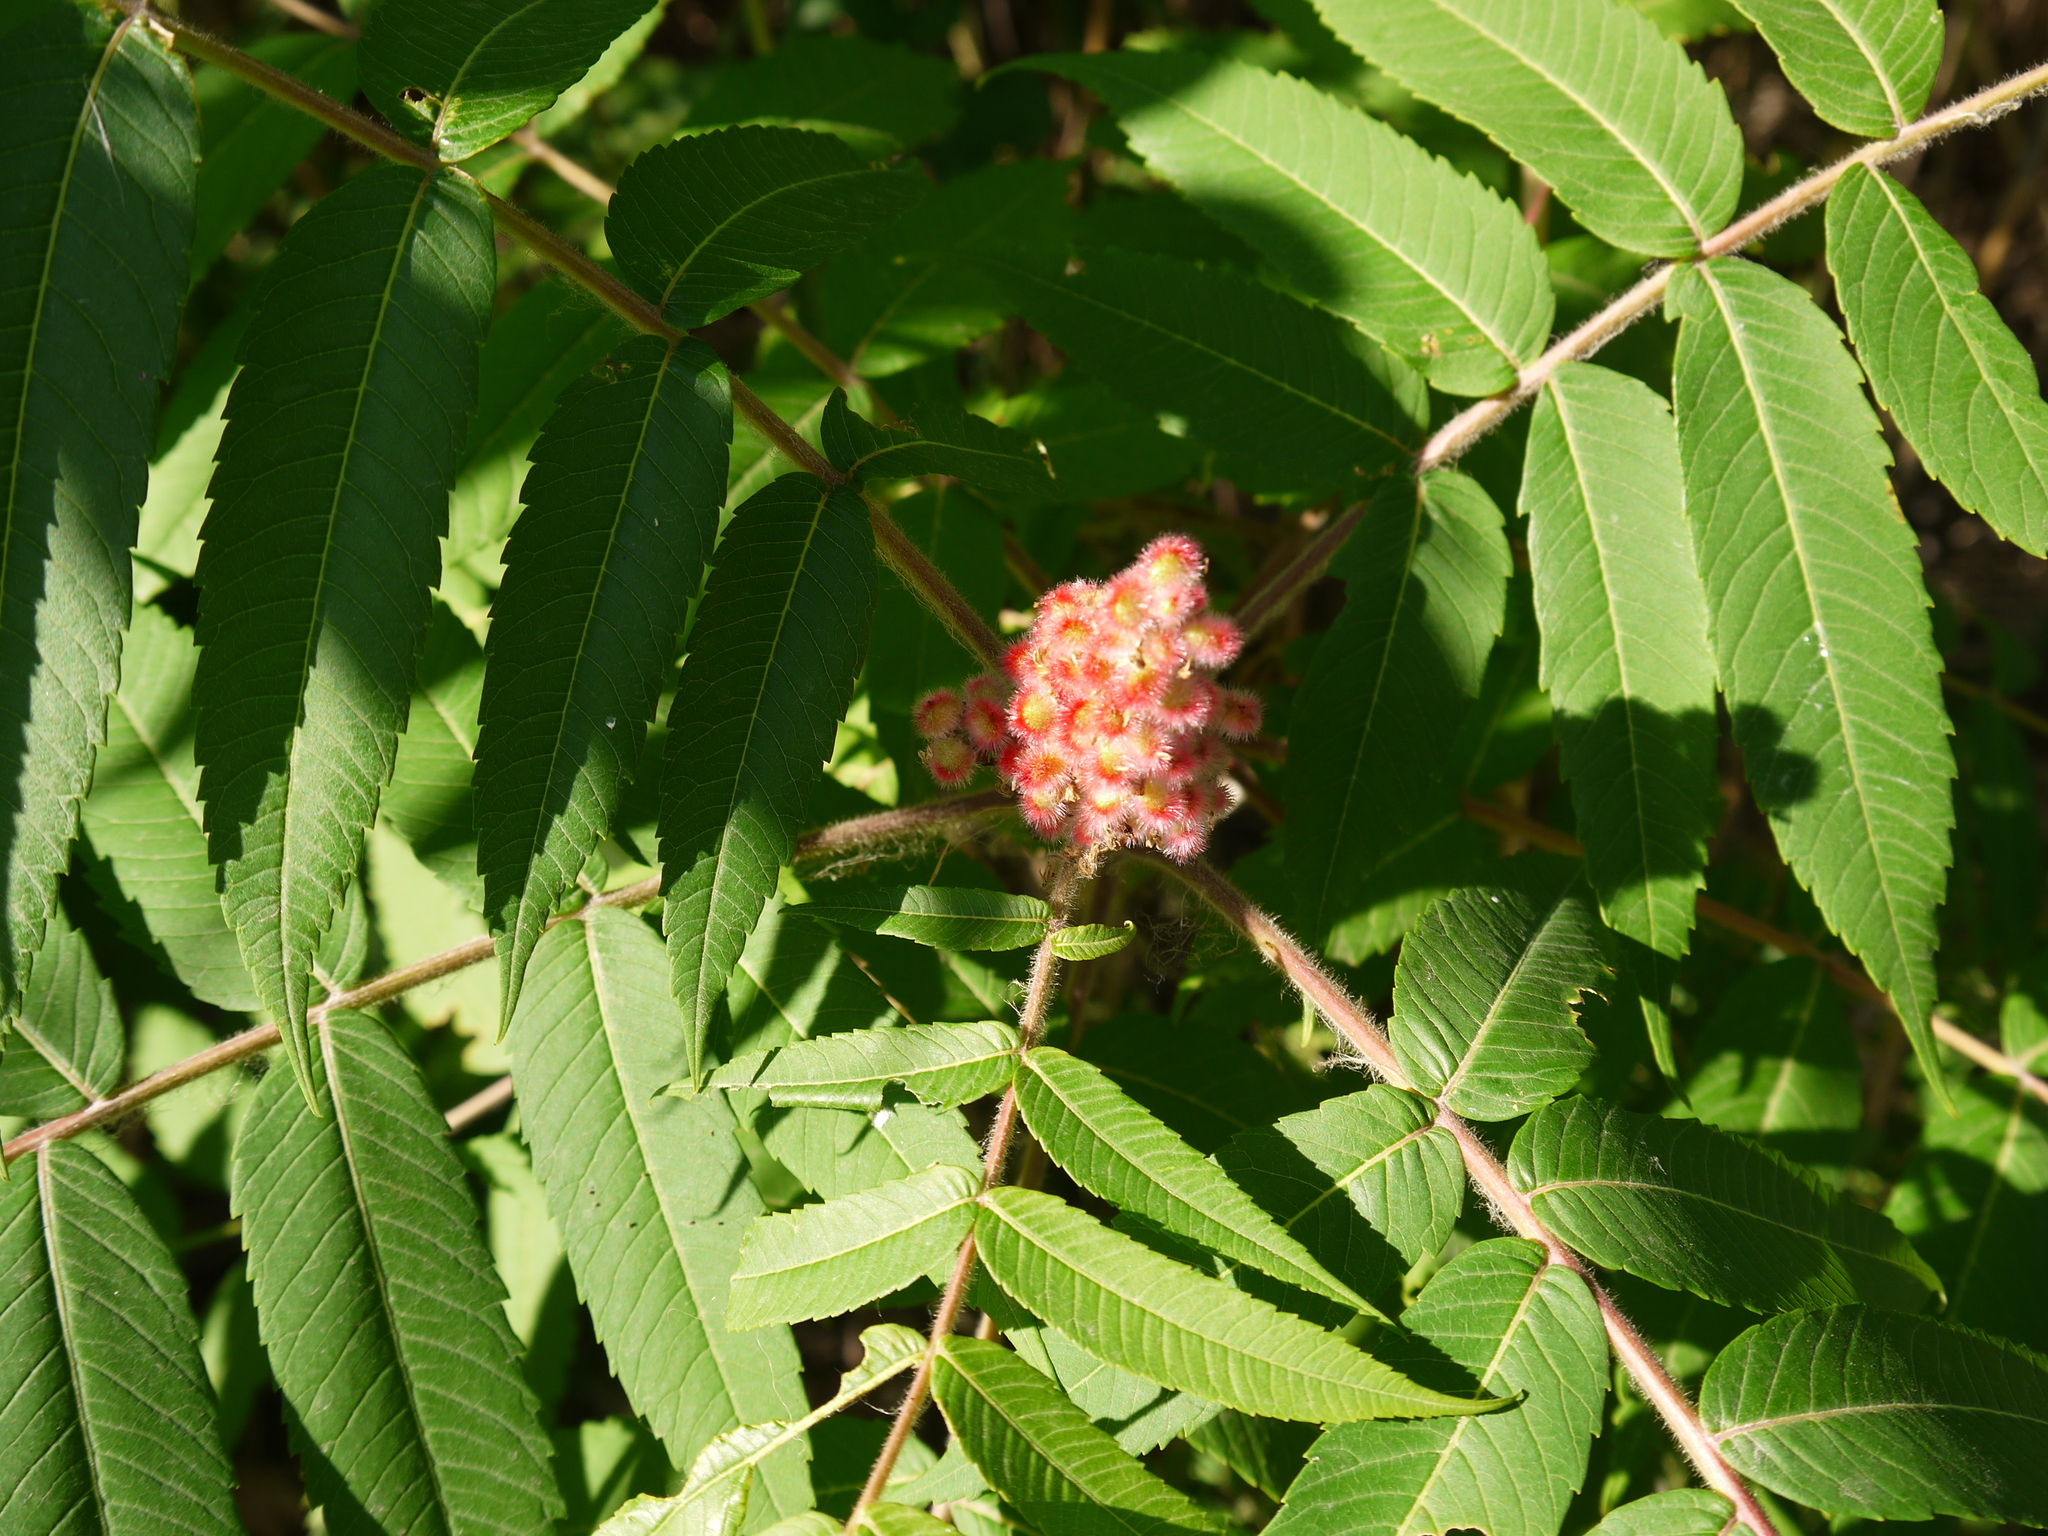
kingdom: Plantae
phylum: Tracheophyta
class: Magnoliopsida
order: Sapindales
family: Anacardiaceae
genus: Rhus
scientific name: Rhus typhina
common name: Staghorn sumac
